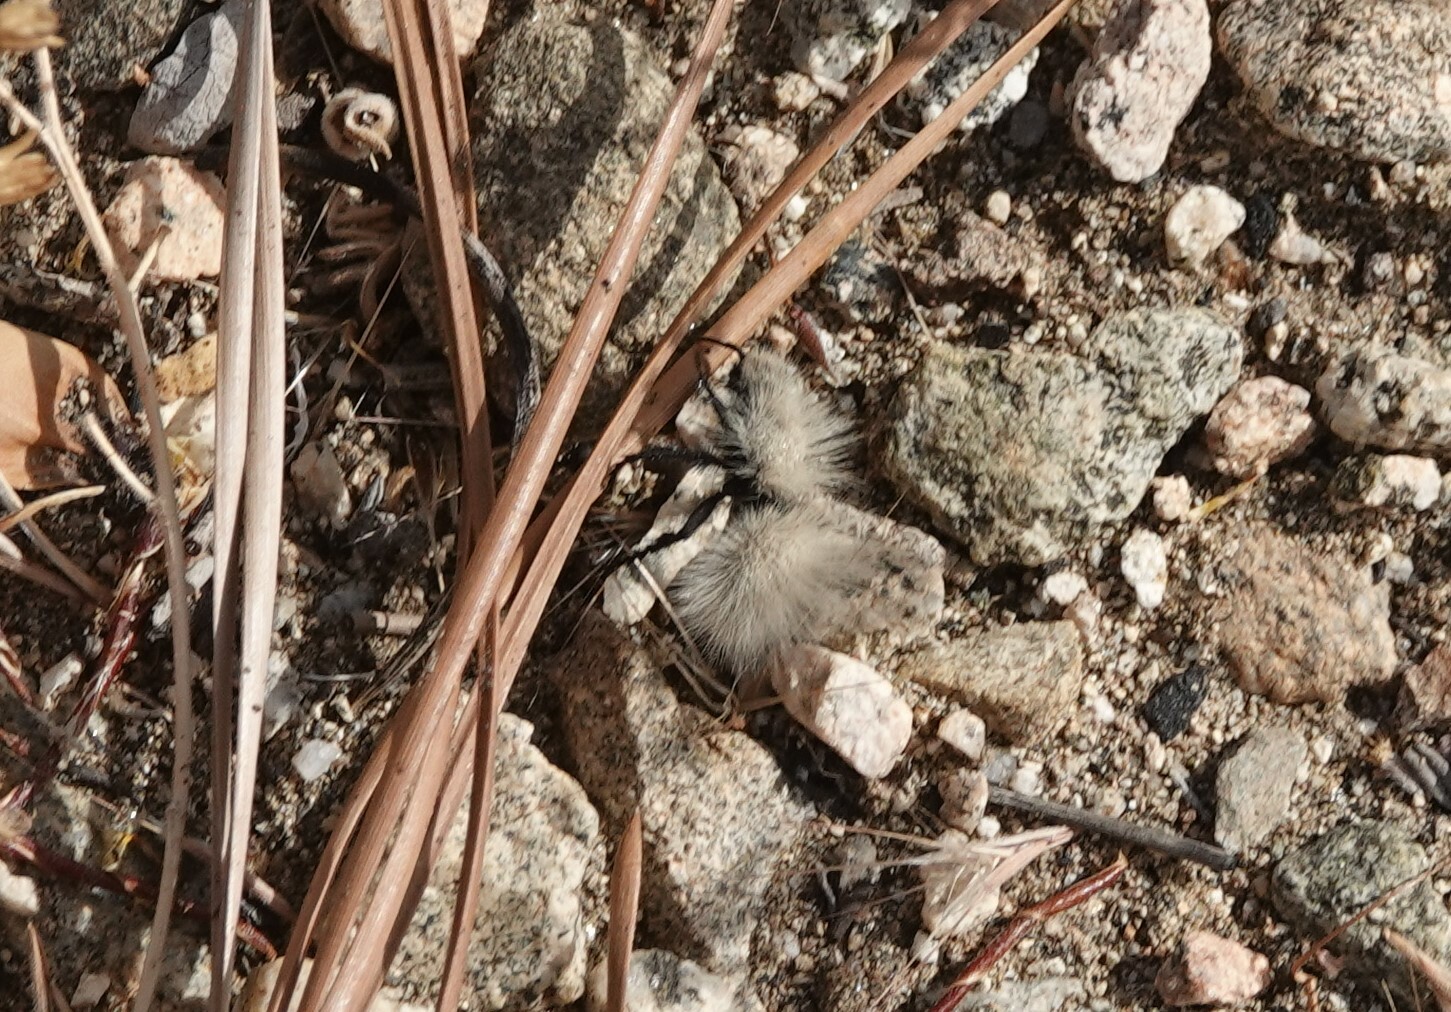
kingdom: Animalia
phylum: Arthropoda
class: Insecta
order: Hymenoptera
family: Mutillidae
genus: Dasymutilla
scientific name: Dasymutilla
